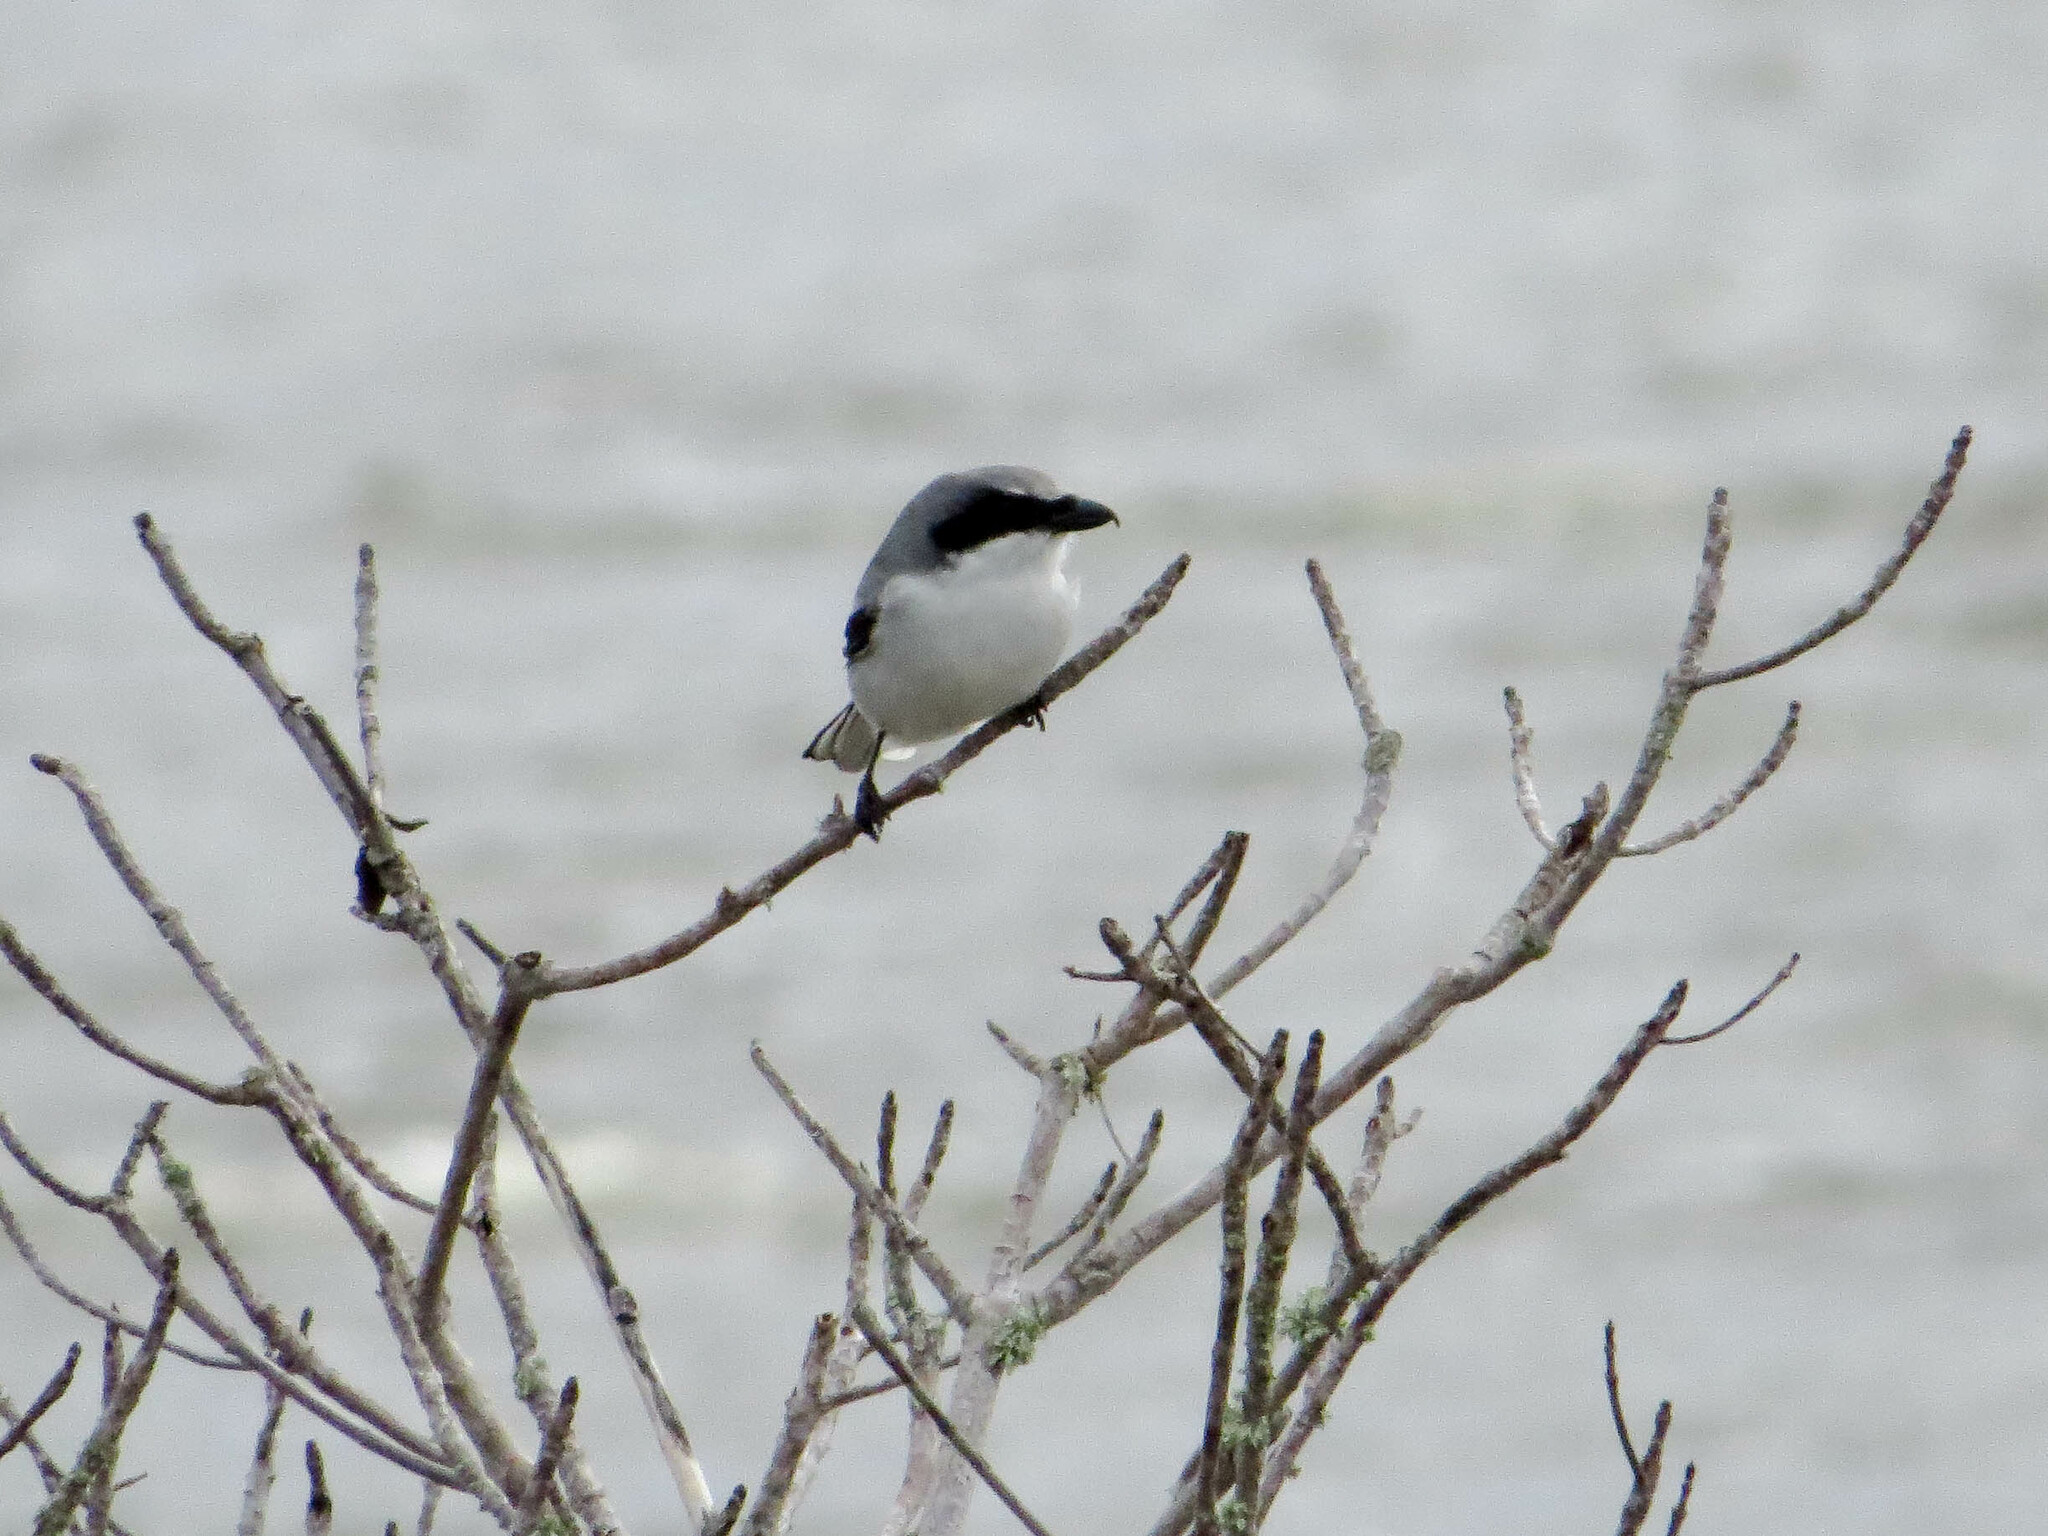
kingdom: Animalia
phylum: Chordata
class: Aves
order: Passeriformes
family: Laniidae
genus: Lanius
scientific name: Lanius ludovicianus
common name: Loggerhead shrike
